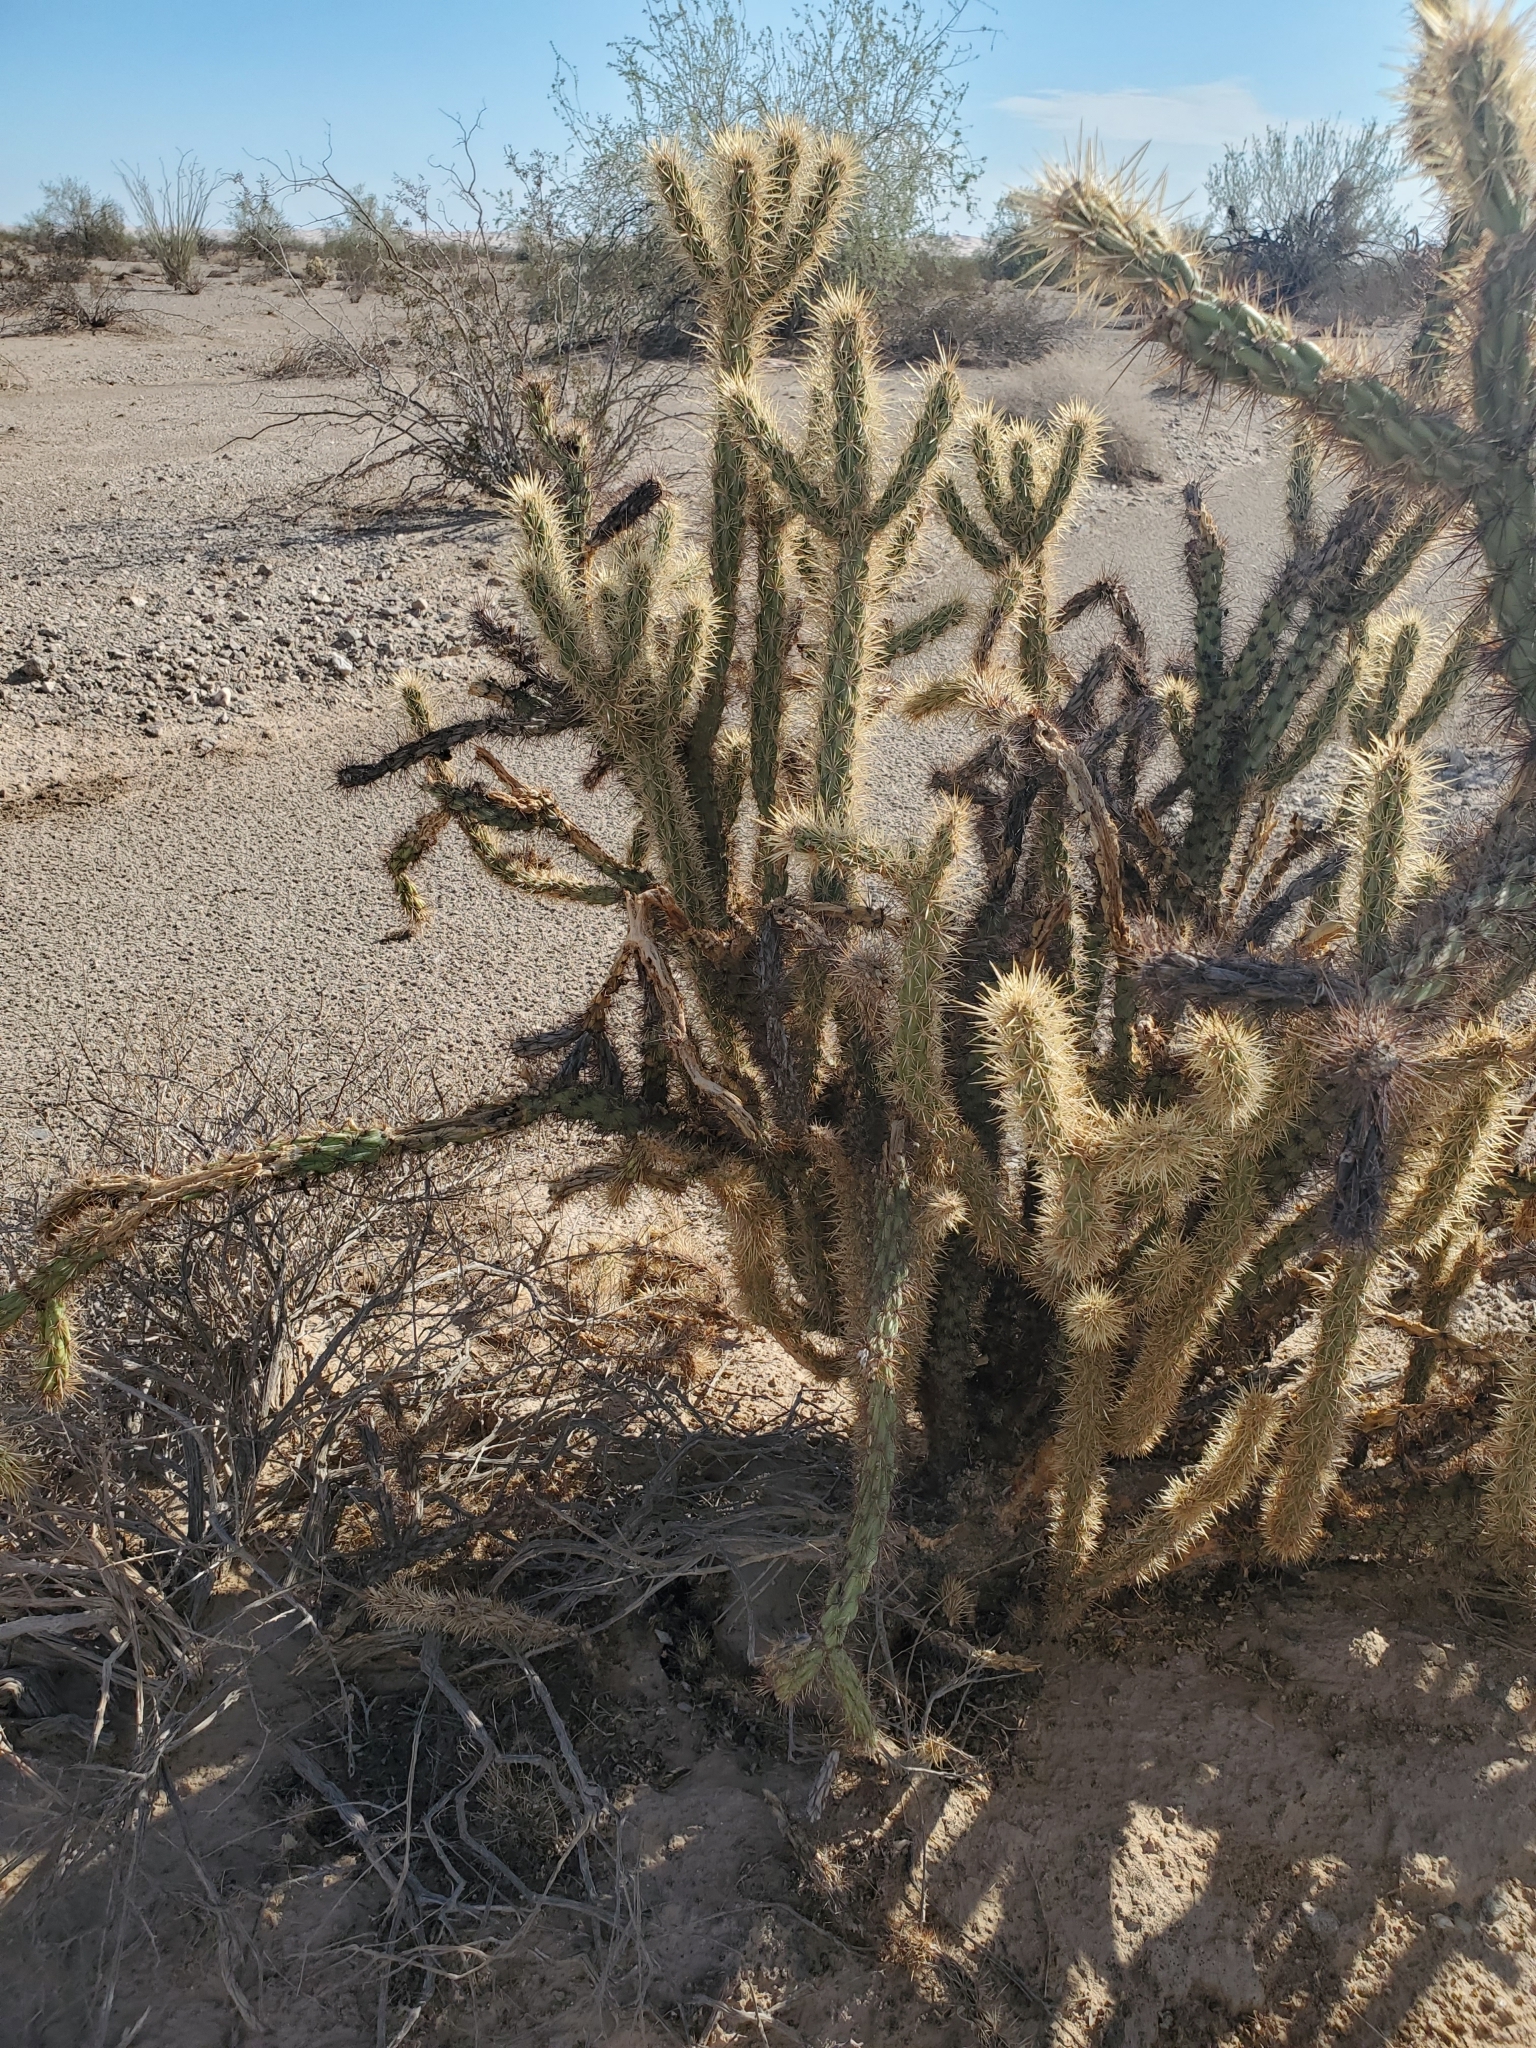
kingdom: Plantae
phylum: Tracheophyta
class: Magnoliopsida
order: Caryophyllales
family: Cactaceae
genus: Cylindropuntia
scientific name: Cylindropuntia acanthocarpa
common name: Buckhorn cholla
